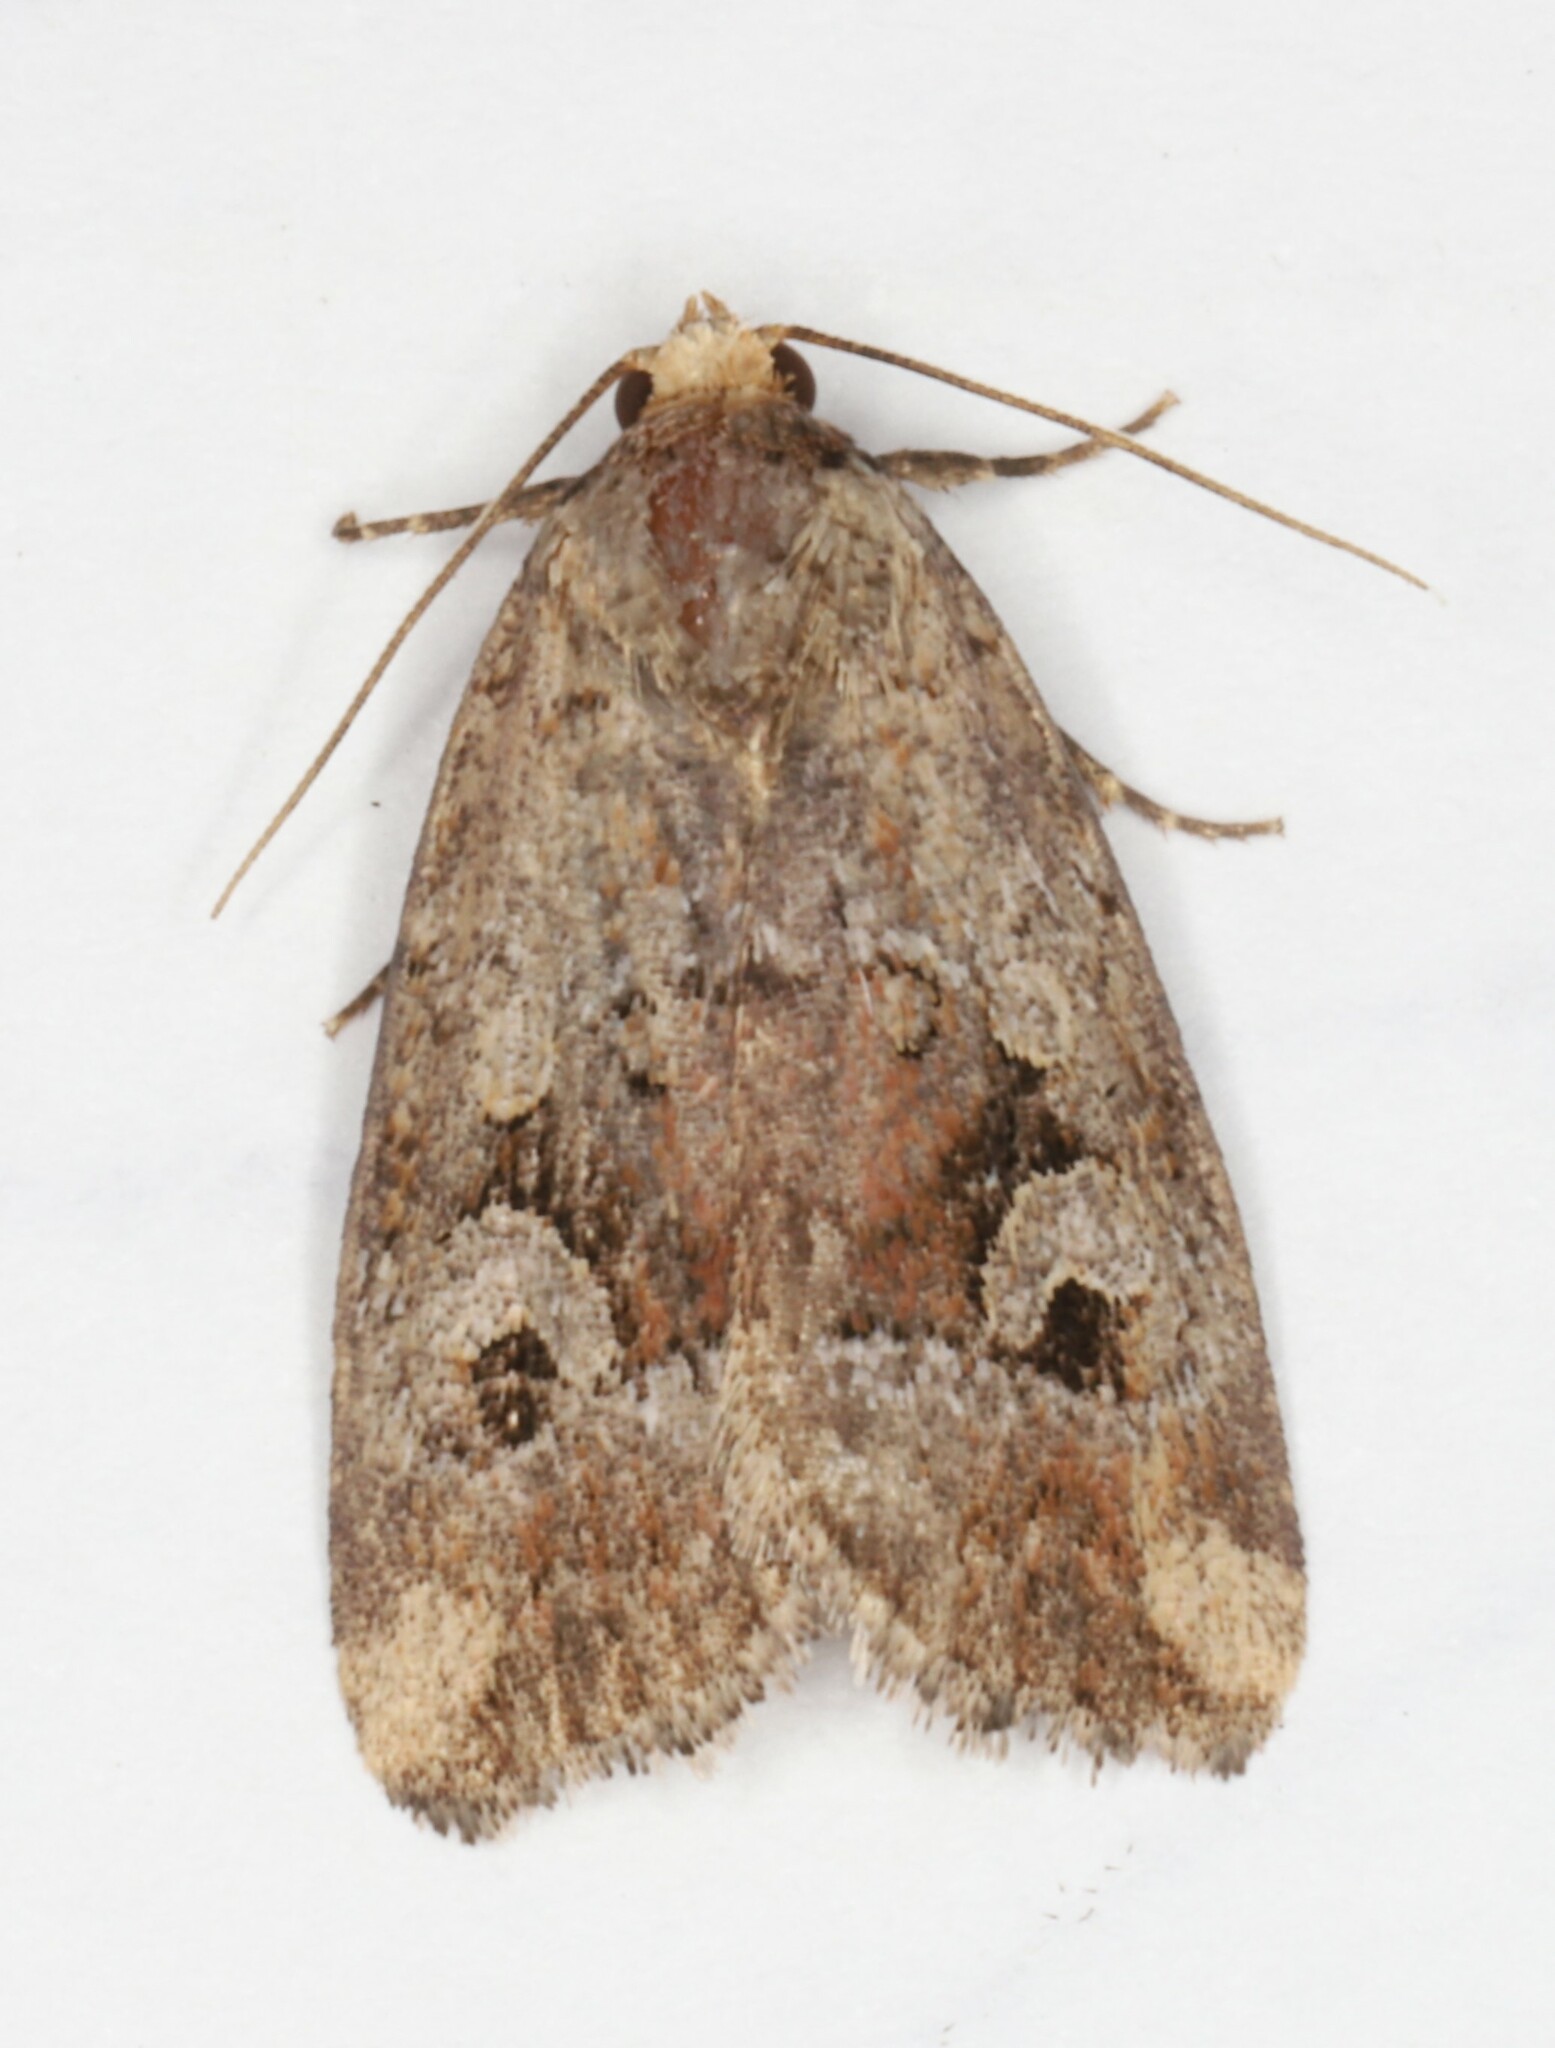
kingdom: Animalia
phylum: Arthropoda
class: Insecta
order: Lepidoptera
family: Noctuidae
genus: Elaphria
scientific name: Elaphria alapallida
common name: Pale-winged midget
